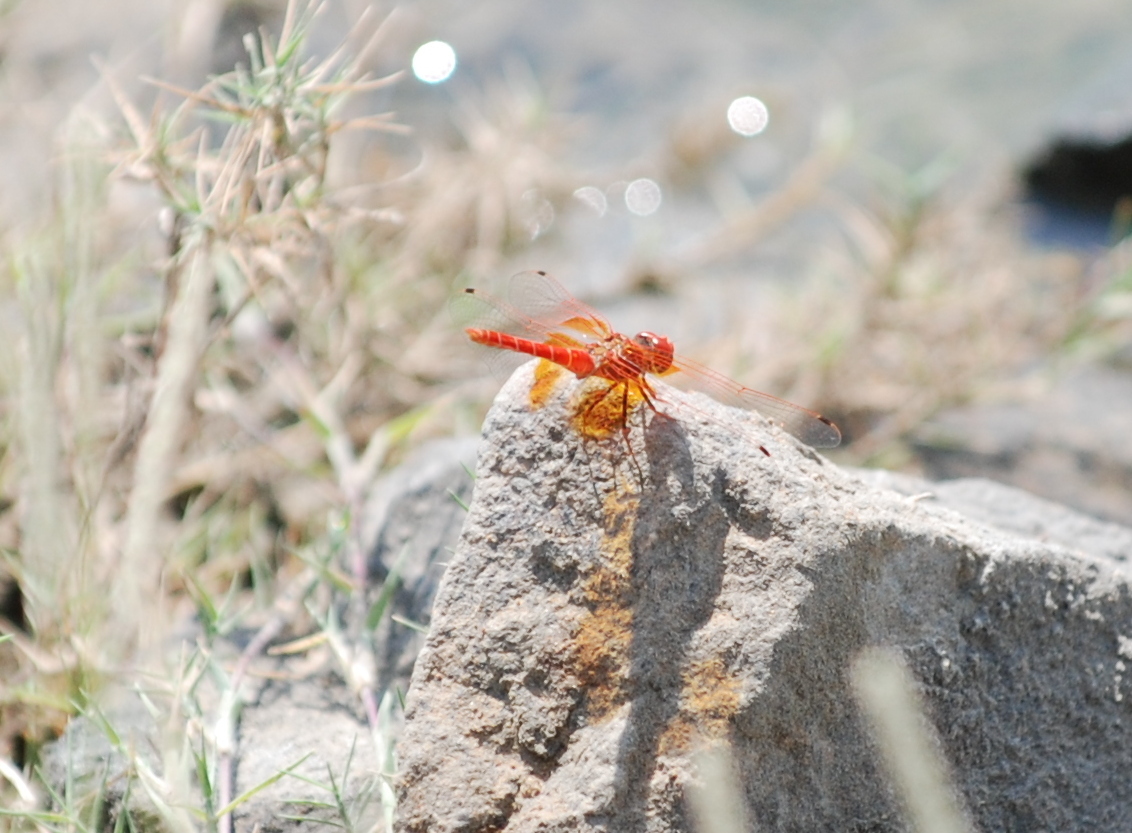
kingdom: Animalia
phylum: Arthropoda
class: Insecta
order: Odonata
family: Libellulidae
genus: Trithemis
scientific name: Trithemis kirbyi
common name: Kirby's dropwing
